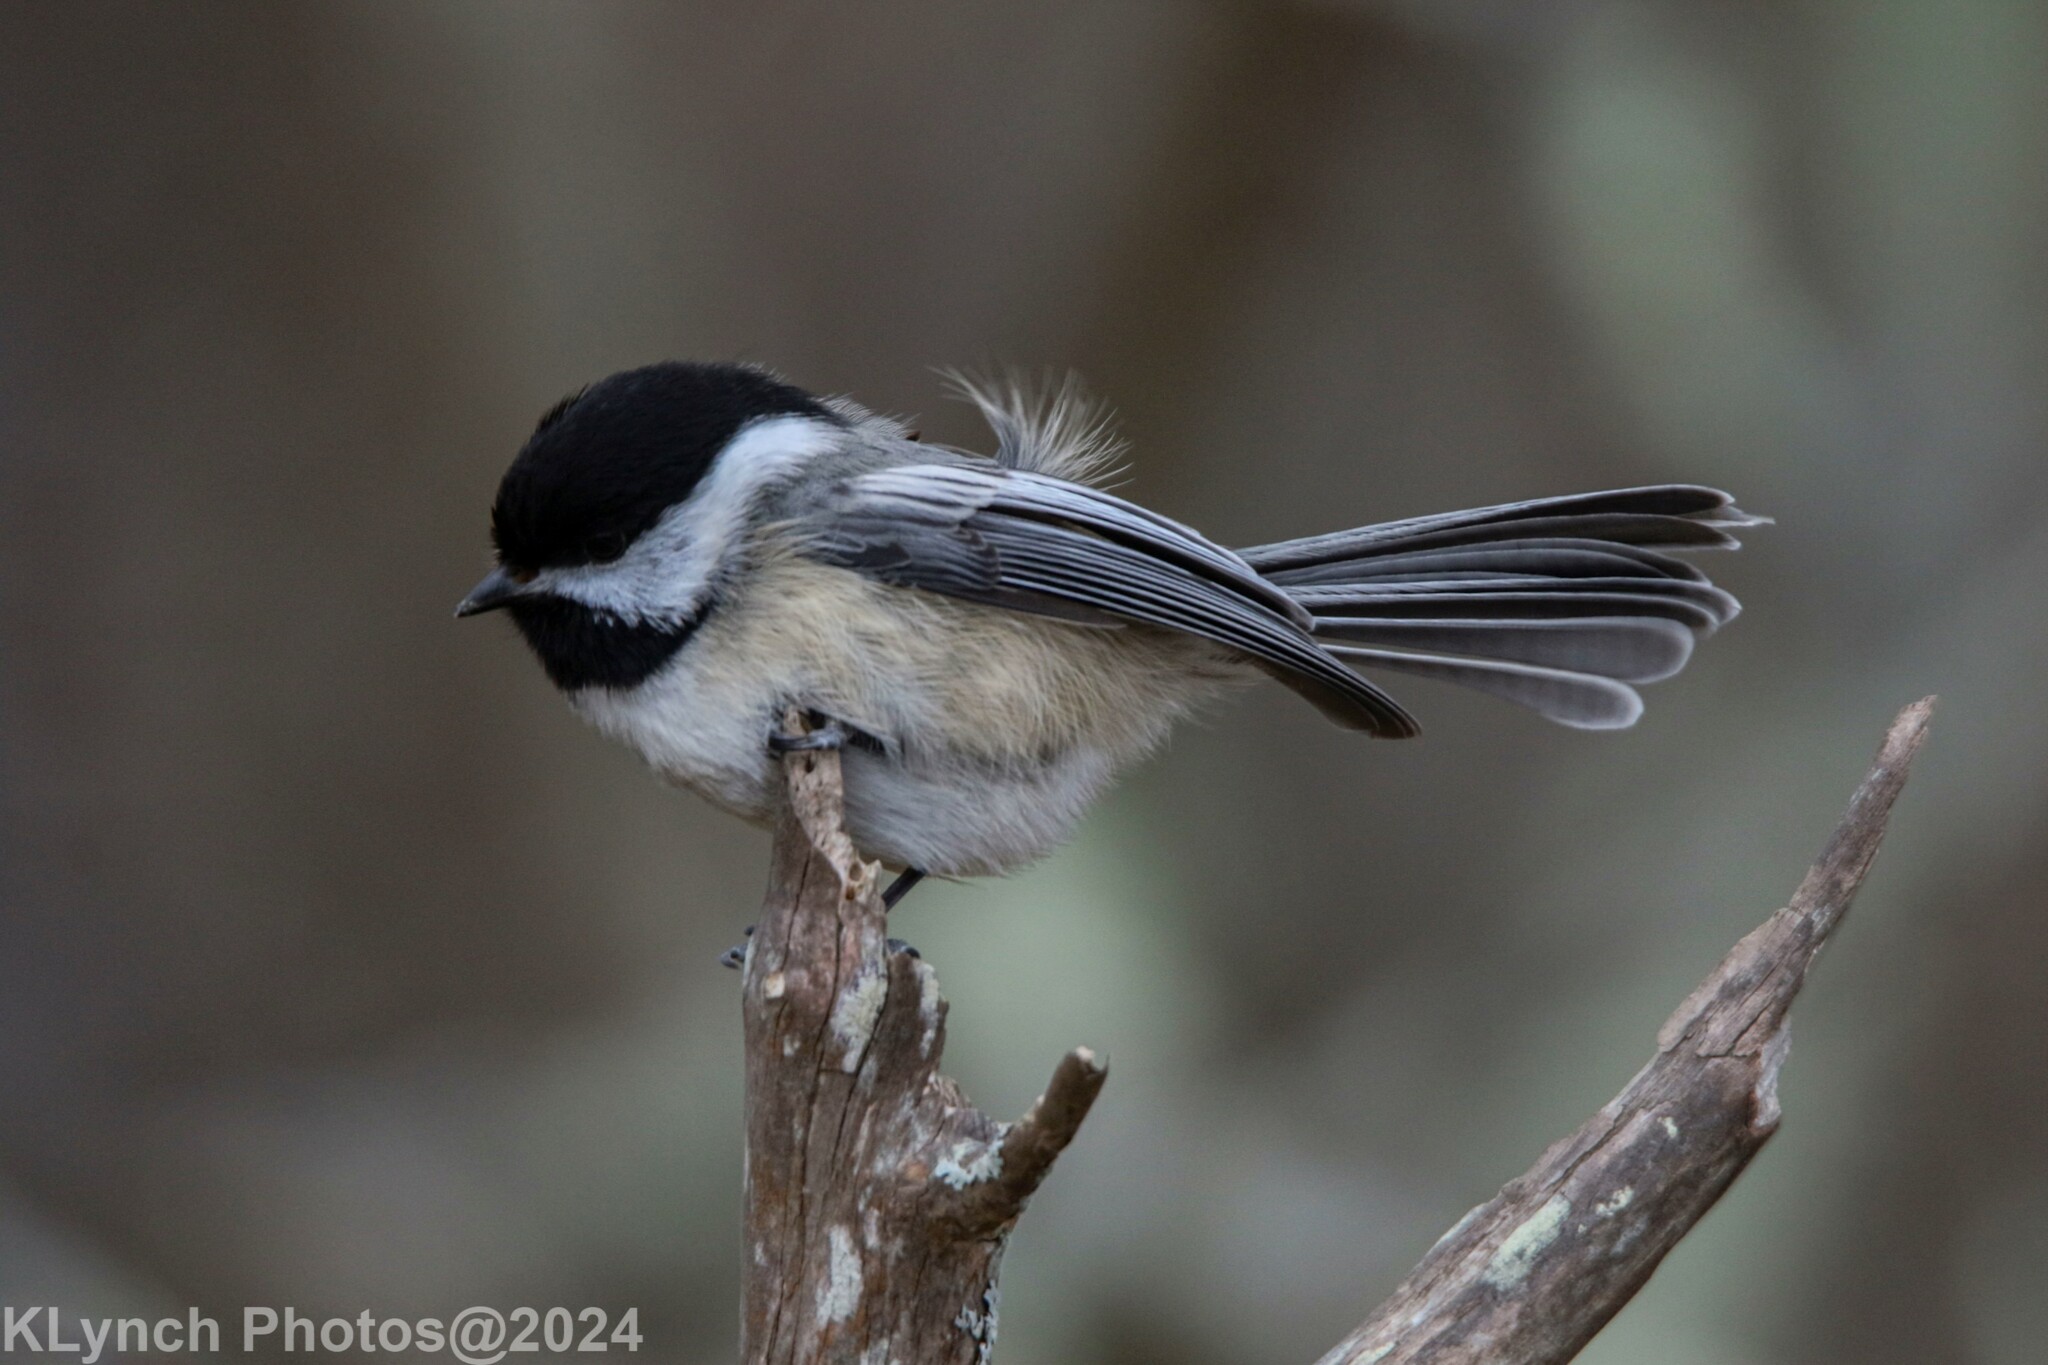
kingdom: Animalia
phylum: Chordata
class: Aves
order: Passeriformes
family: Paridae
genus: Poecile
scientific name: Poecile atricapillus
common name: Black-capped chickadee
